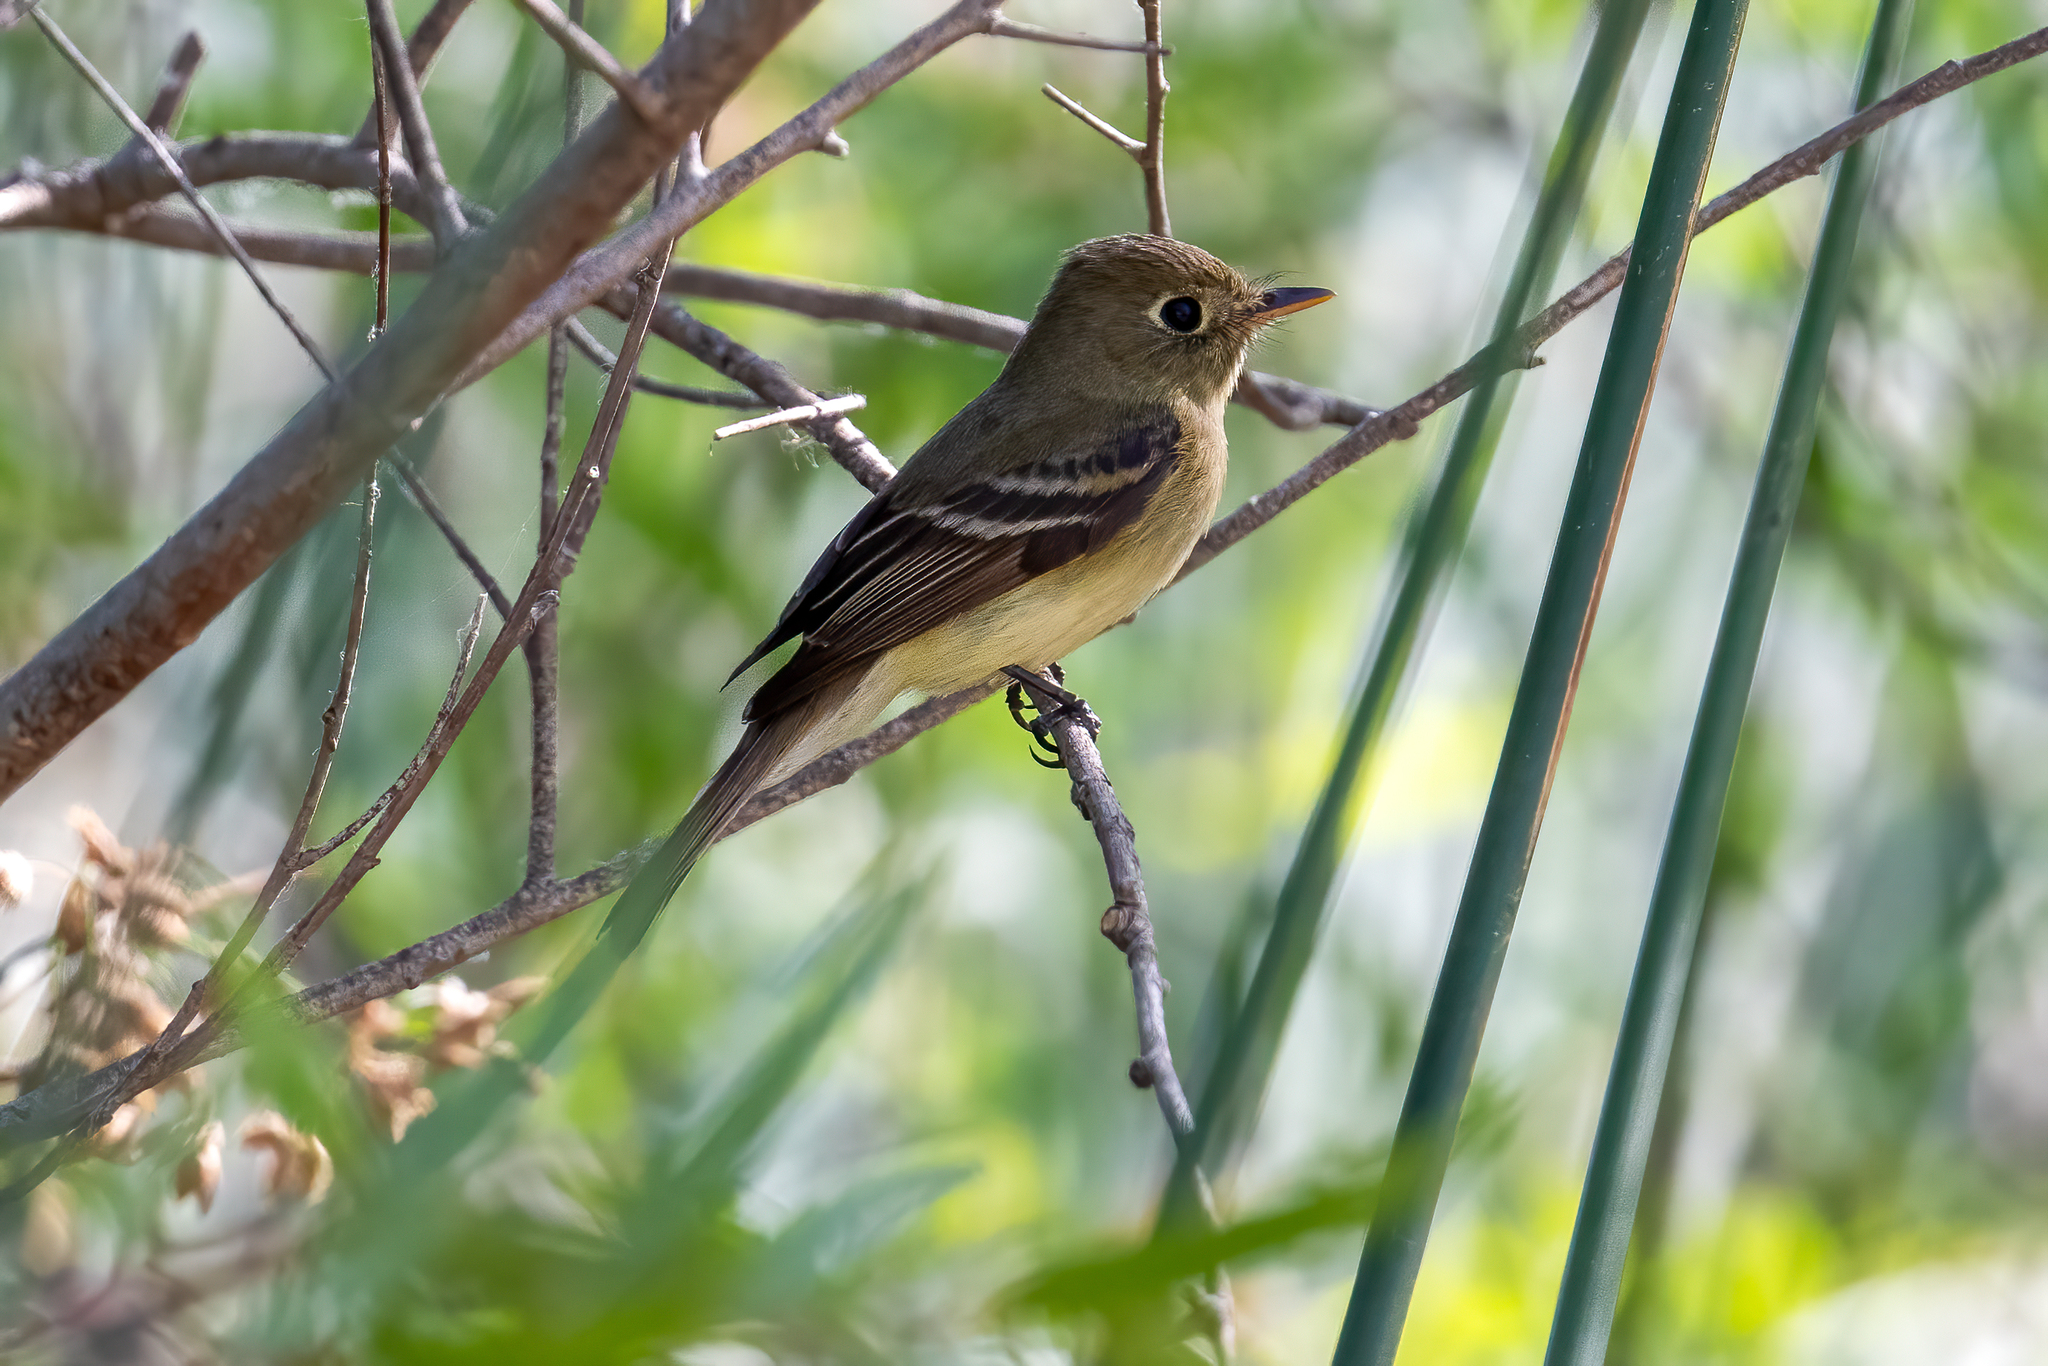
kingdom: Animalia
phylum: Chordata
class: Aves
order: Passeriformes
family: Tyrannidae
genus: Empidonax
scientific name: Empidonax difficilis
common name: Pacific-slope flycatcher
